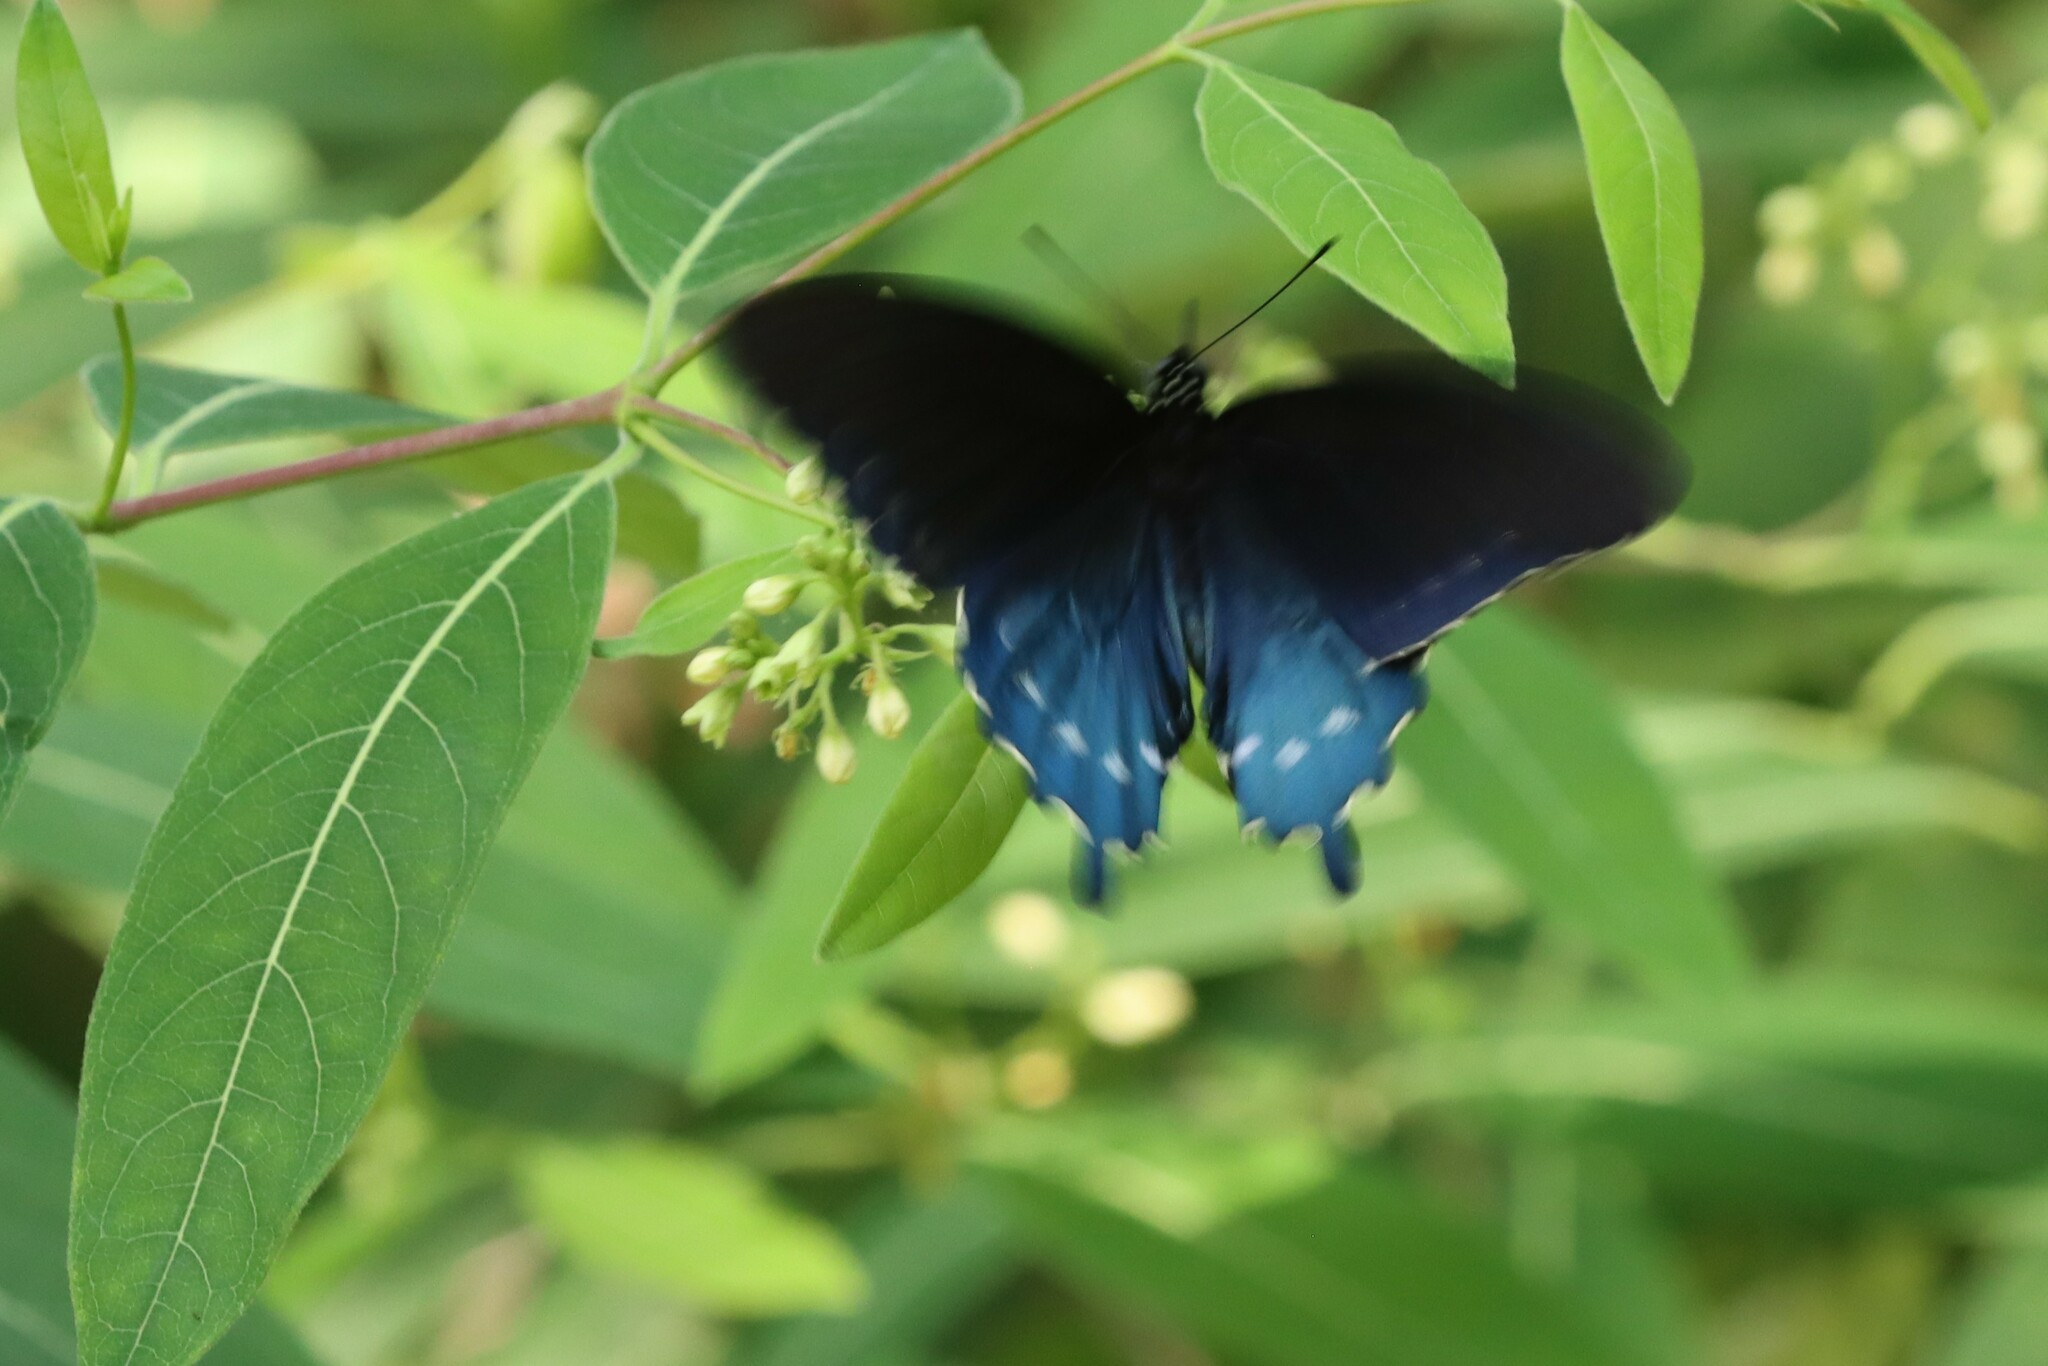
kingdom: Animalia
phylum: Arthropoda
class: Insecta
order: Lepidoptera
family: Papilionidae
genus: Battus
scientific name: Battus philenor
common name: Pipevine swallowtail
